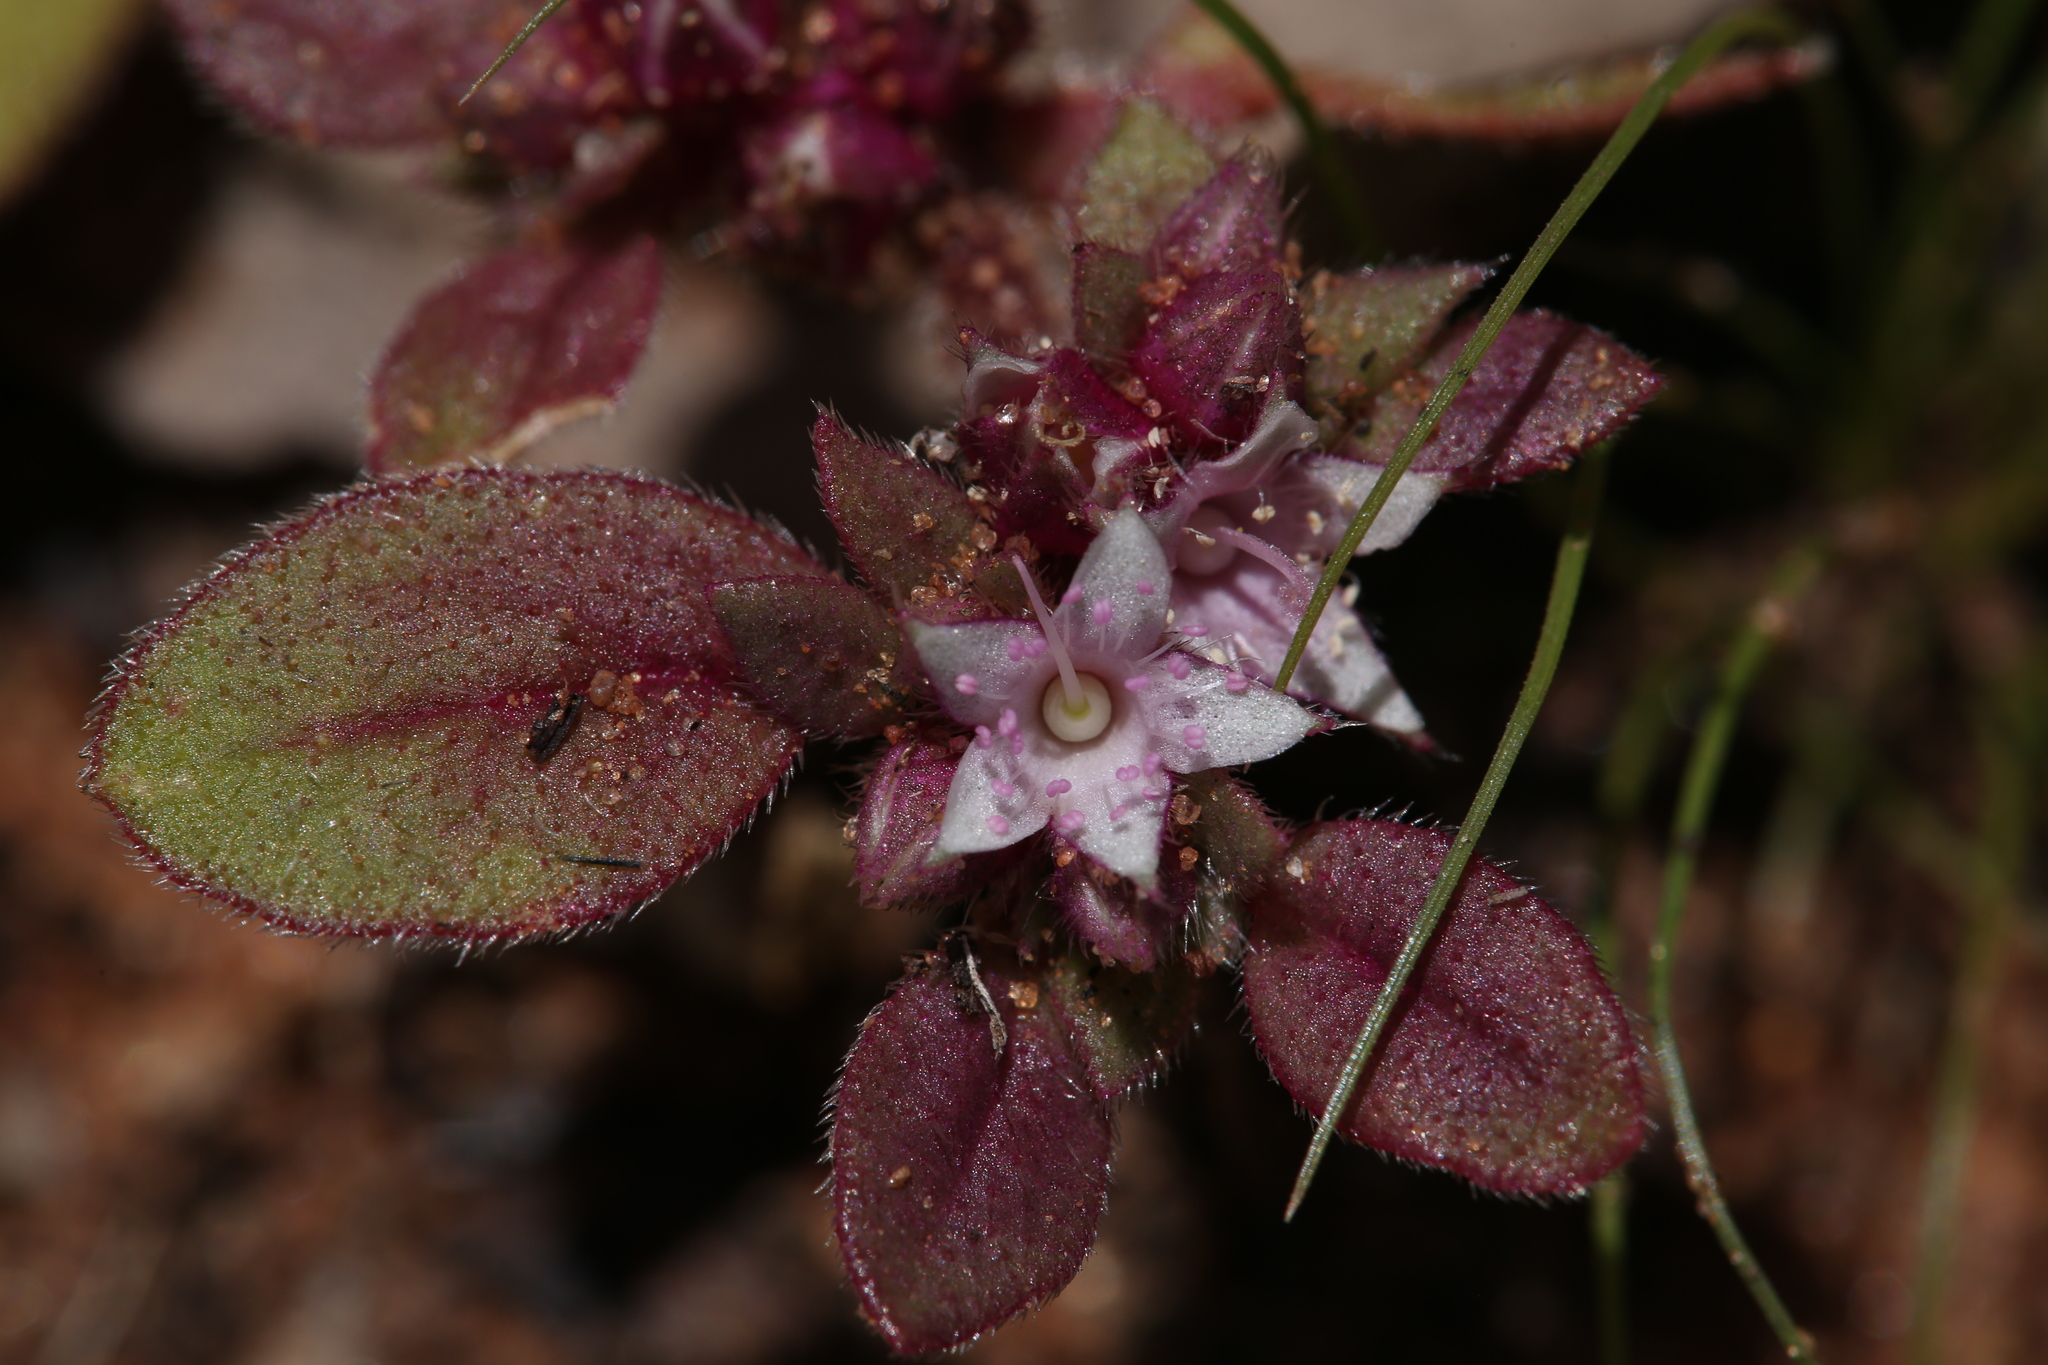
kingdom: Plantae
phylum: Tracheophyta
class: Magnoliopsida
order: Caryophyllales
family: Aizoaceae
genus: Trianthema
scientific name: Trianthema pilosum
